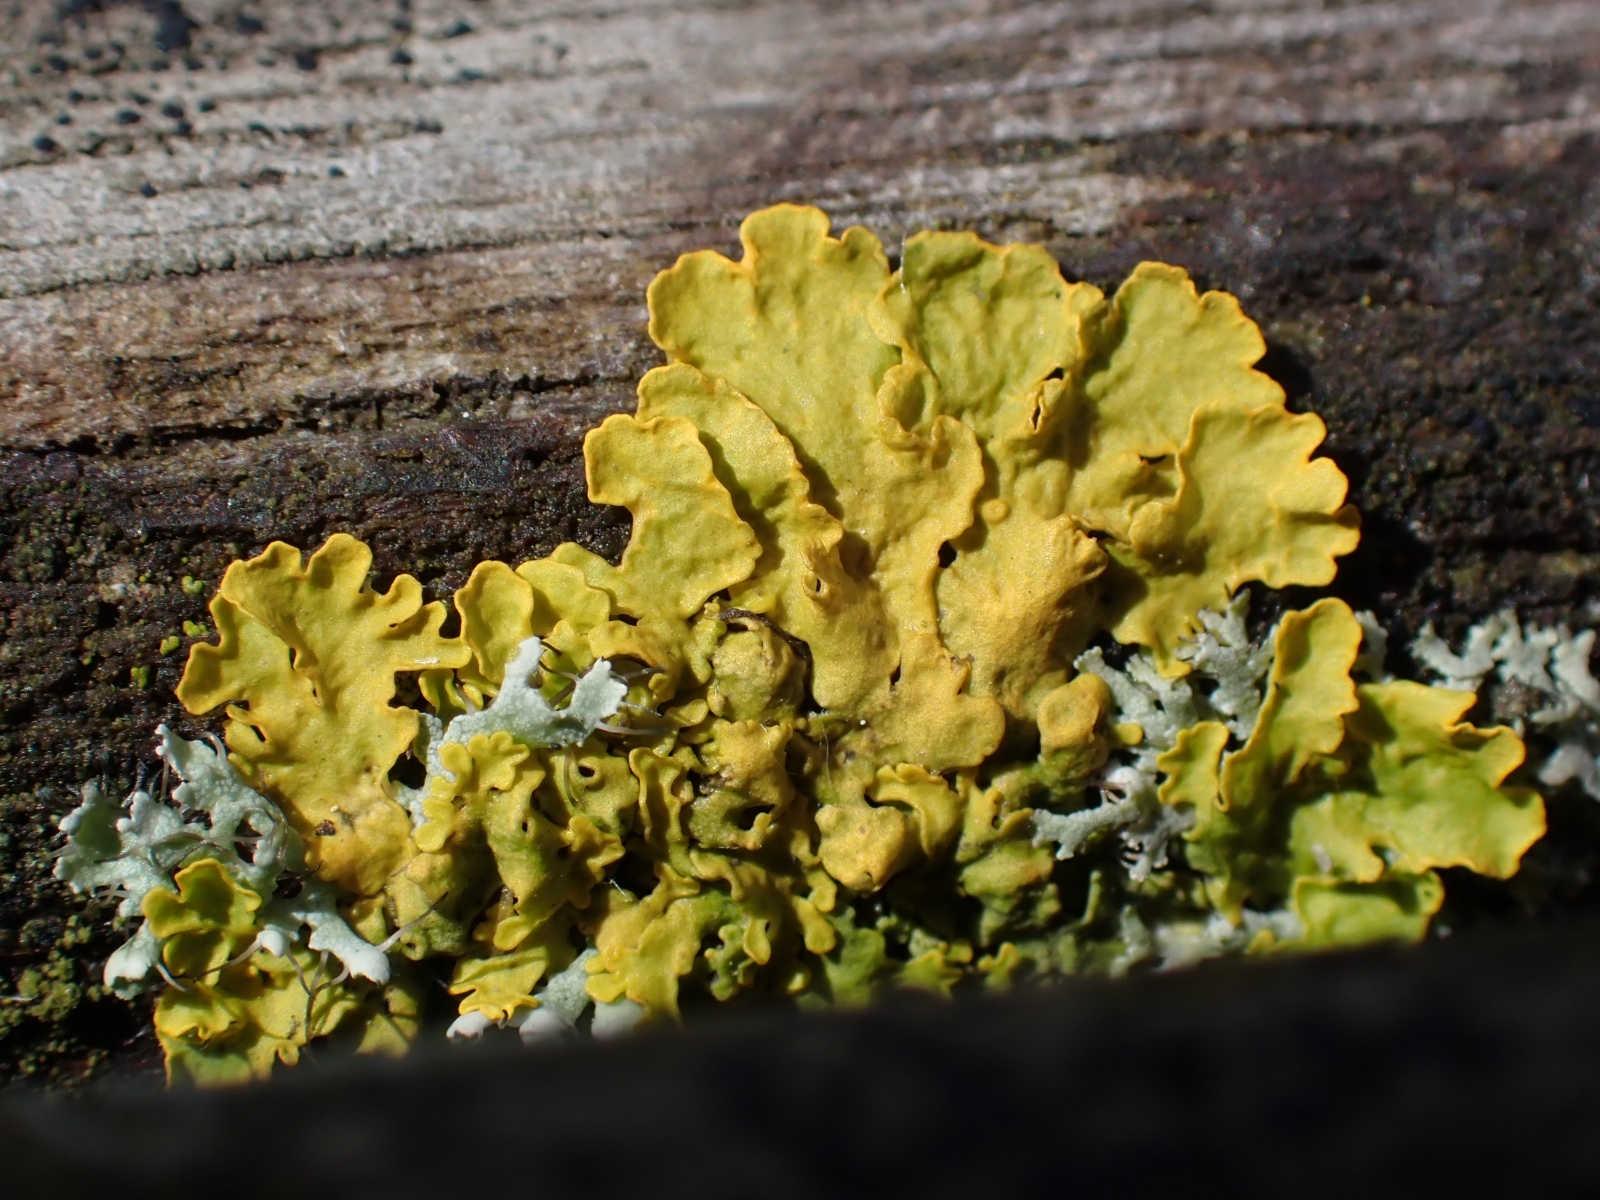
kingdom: Fungi
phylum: Ascomycota
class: Lecanoromycetes
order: Teloschistales
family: Teloschistaceae
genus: Xanthoria
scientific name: Xanthoria parietina
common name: Common orange lichen
